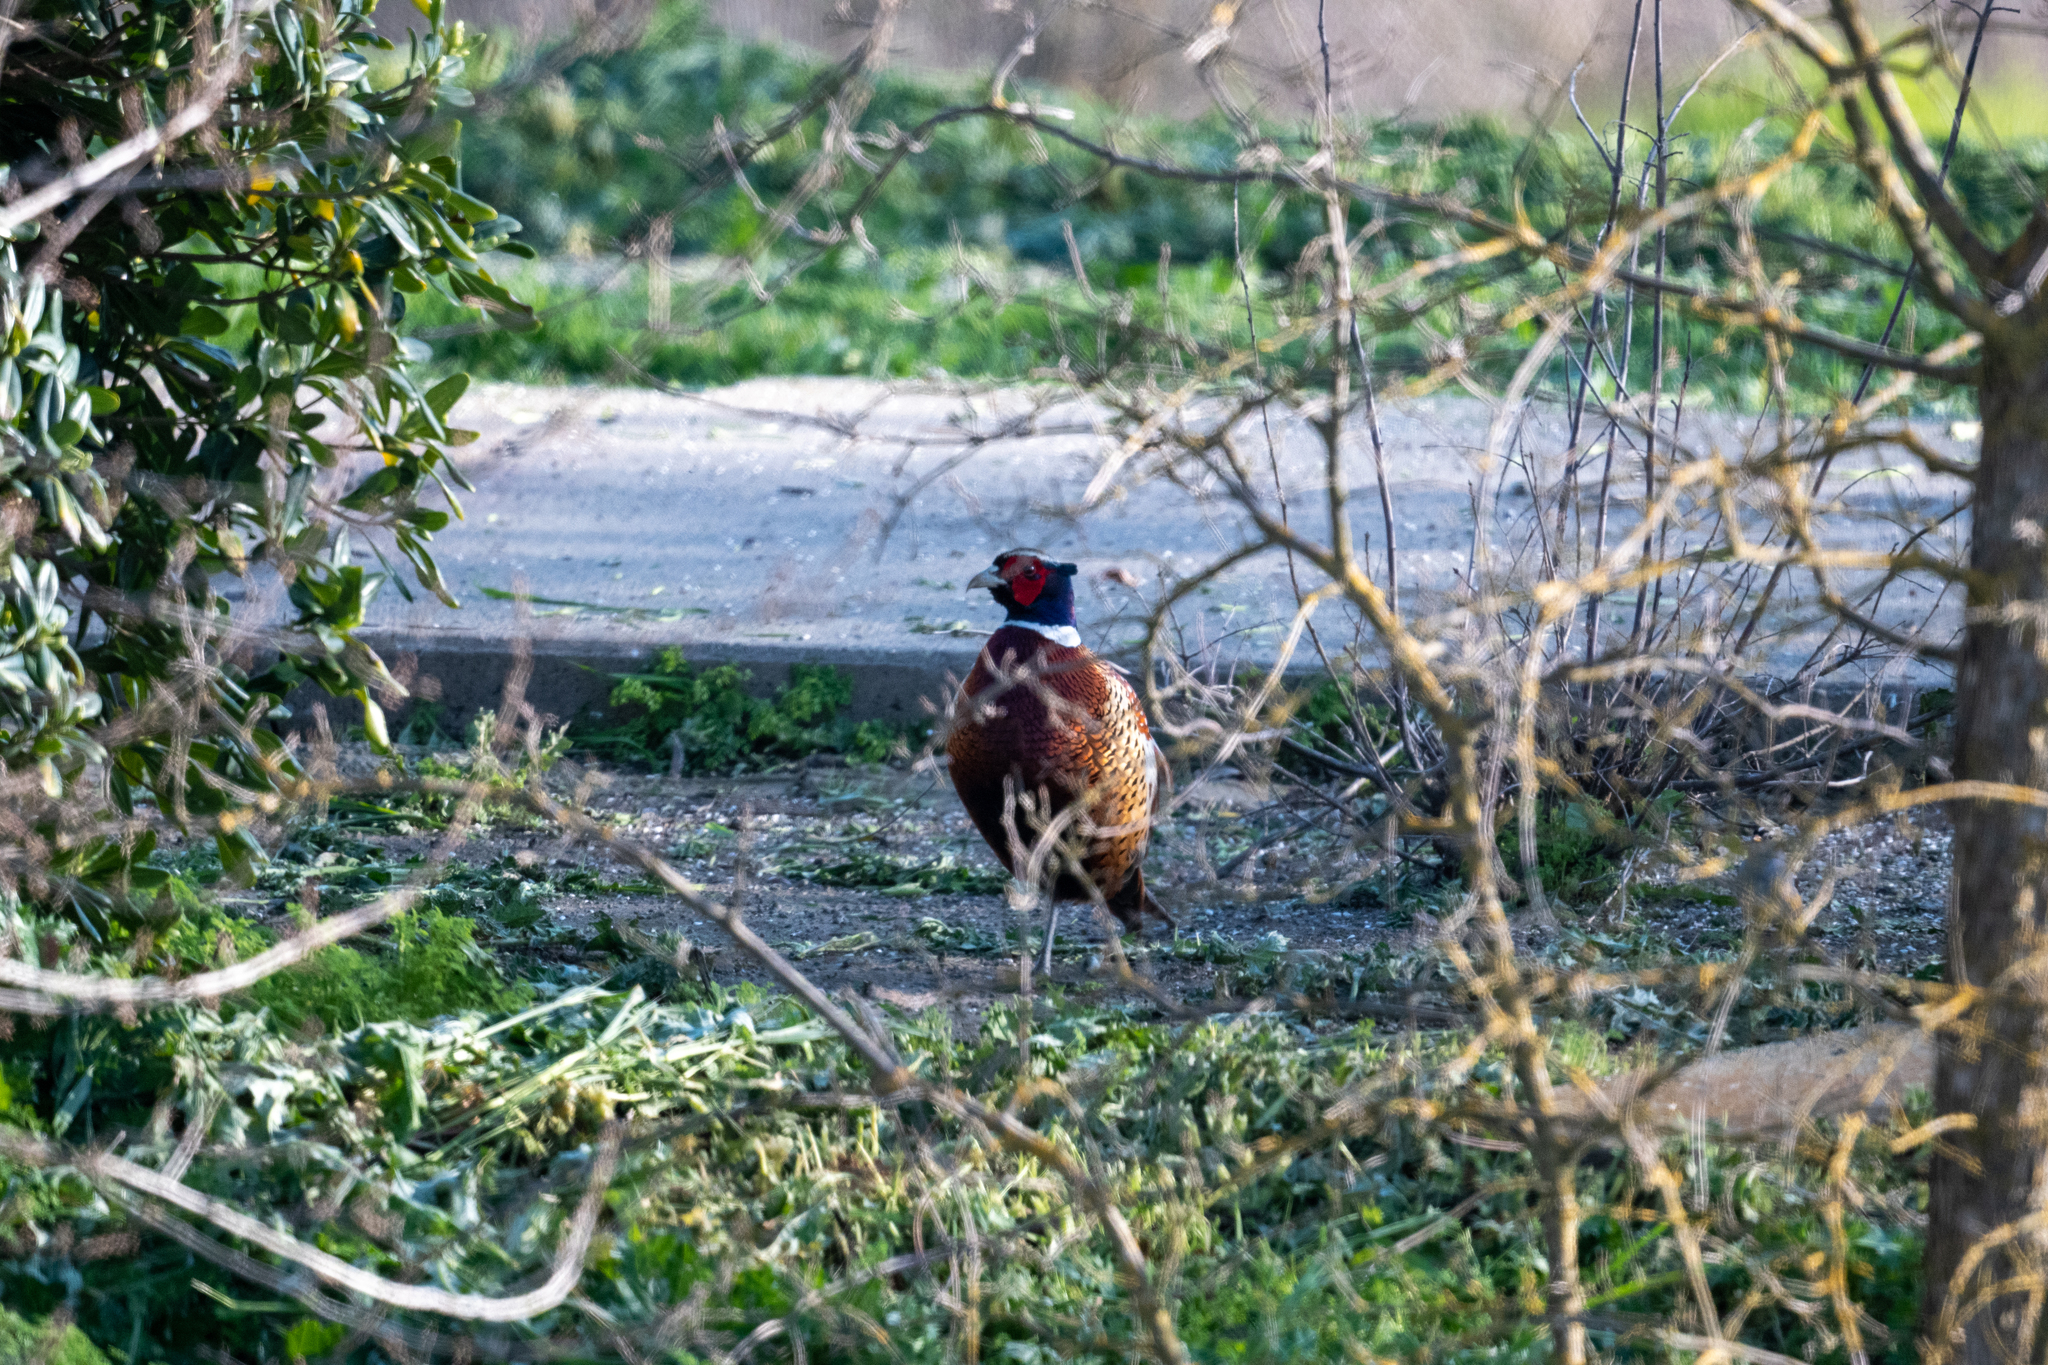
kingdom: Animalia
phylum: Chordata
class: Aves
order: Galliformes
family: Phasianidae
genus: Phasianus
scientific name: Phasianus colchicus
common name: Common pheasant
